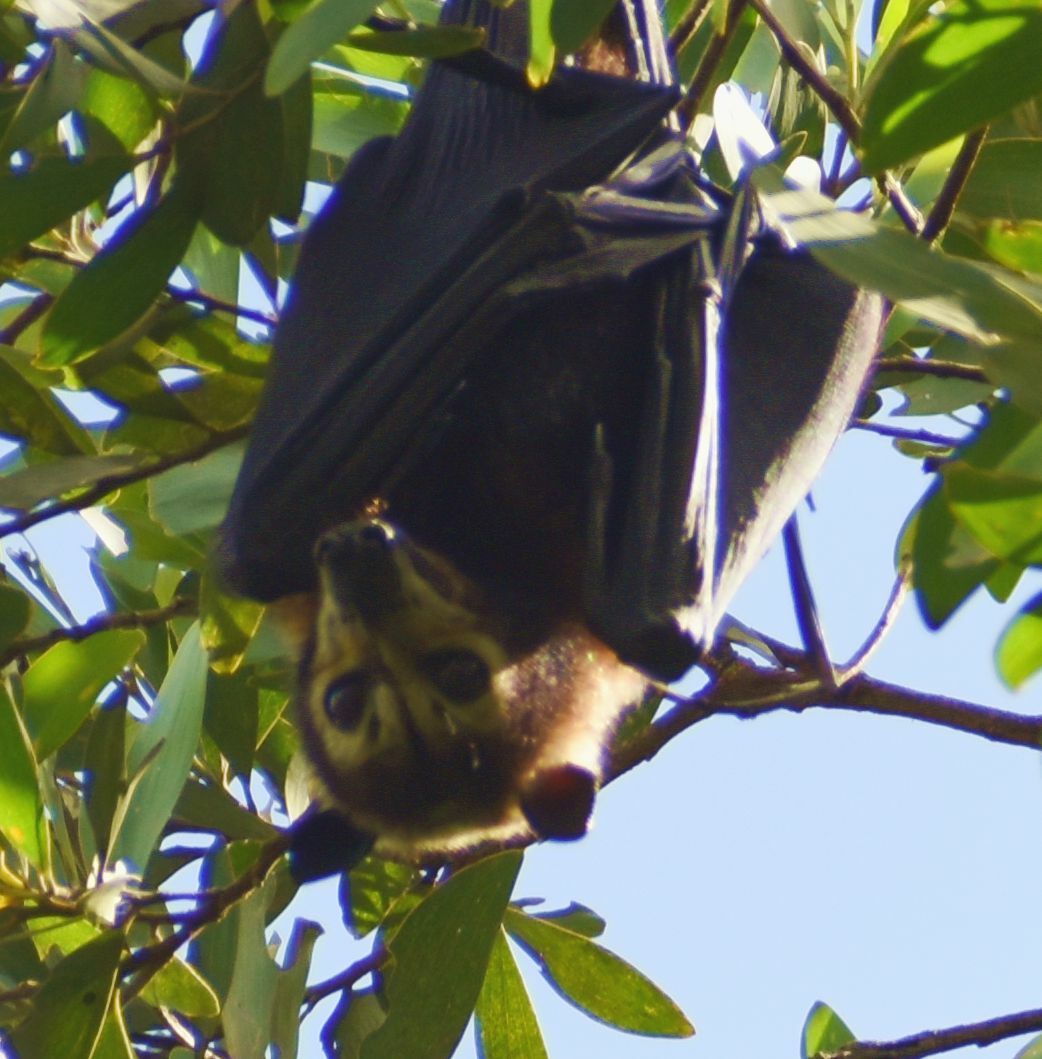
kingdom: Animalia
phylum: Chordata
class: Mammalia
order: Chiroptera
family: Pteropodidae
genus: Pteropus
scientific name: Pteropus conspicillatus
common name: Spectacled flying fox
